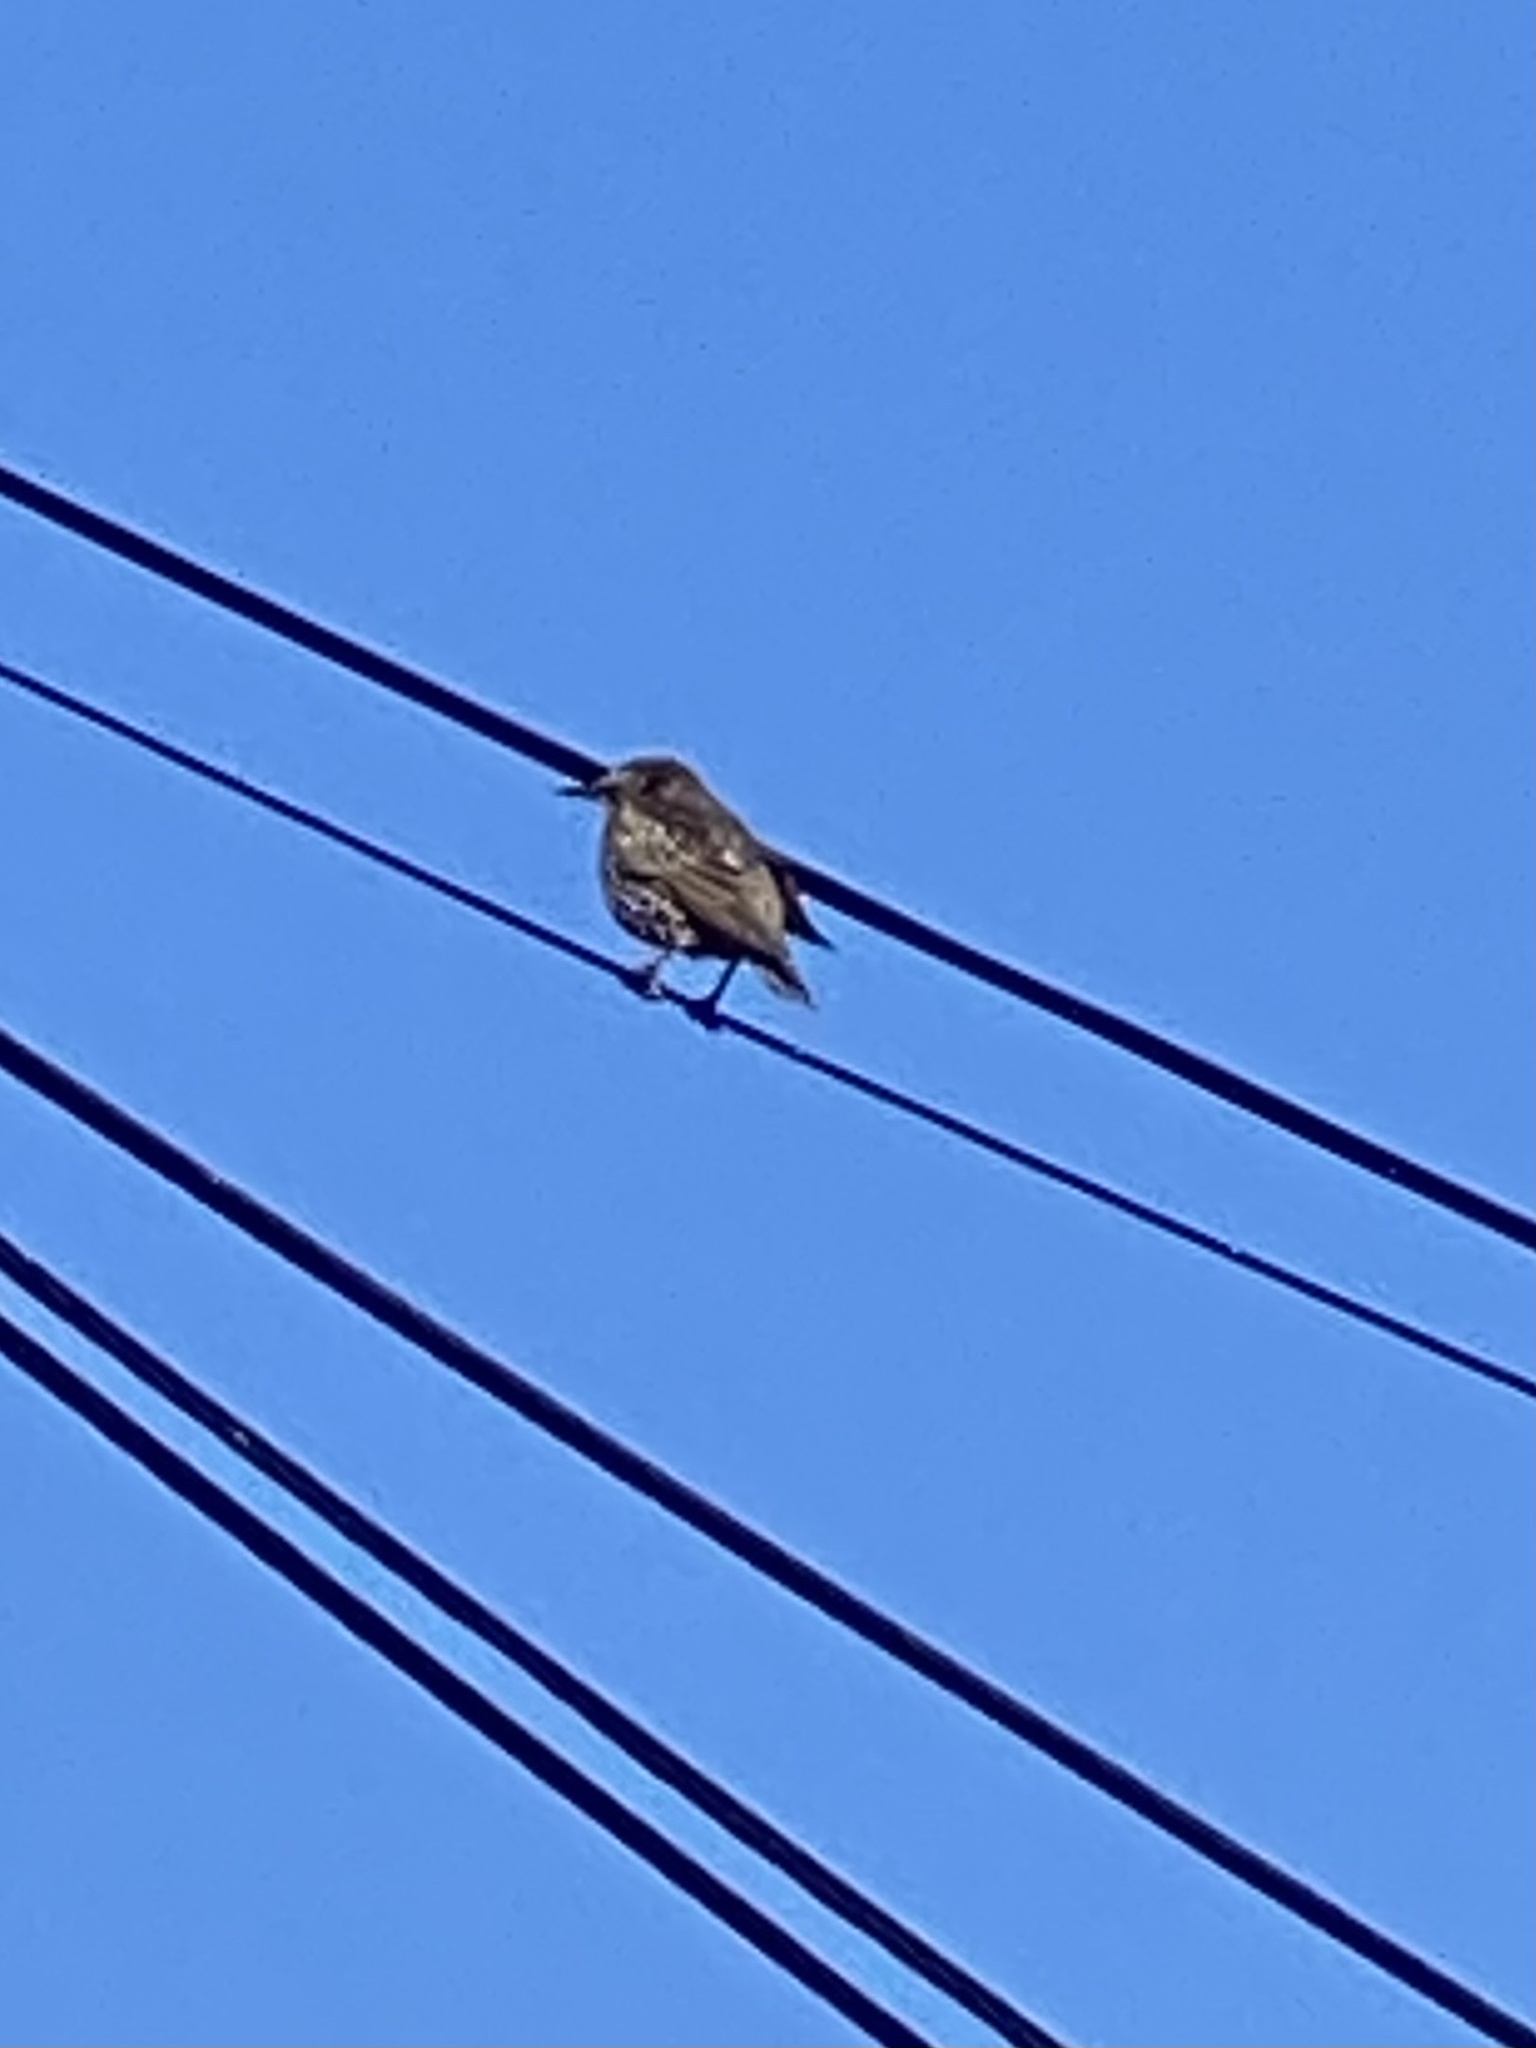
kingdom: Animalia
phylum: Chordata
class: Aves
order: Passeriformes
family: Sturnidae
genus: Sturnus
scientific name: Sturnus vulgaris
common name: Common starling
